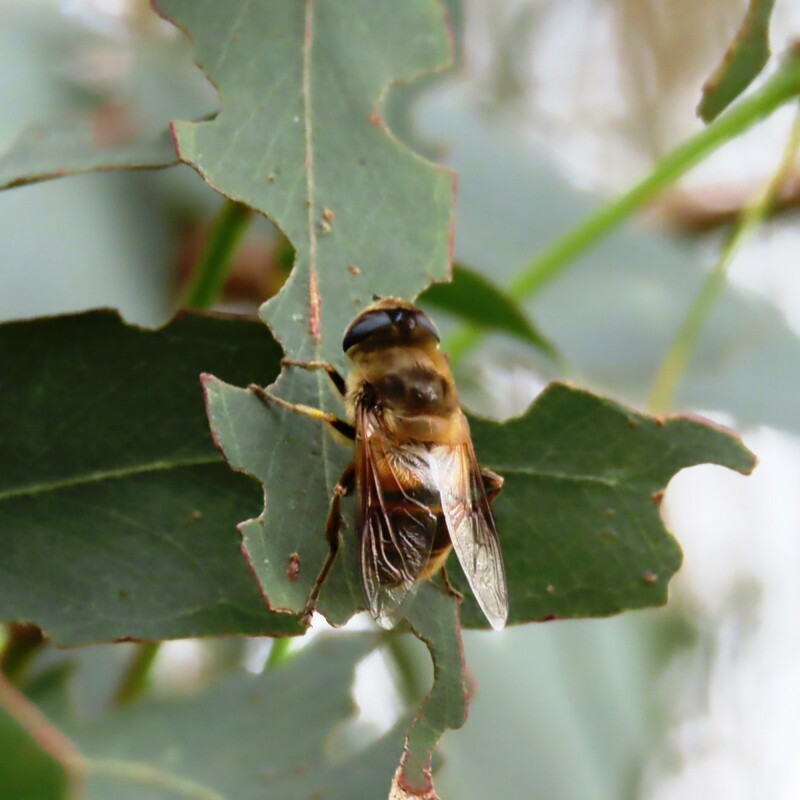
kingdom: Animalia
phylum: Arthropoda
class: Insecta
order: Diptera
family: Syrphidae
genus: Eristalis
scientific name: Eristalis tenax
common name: Drone fly
